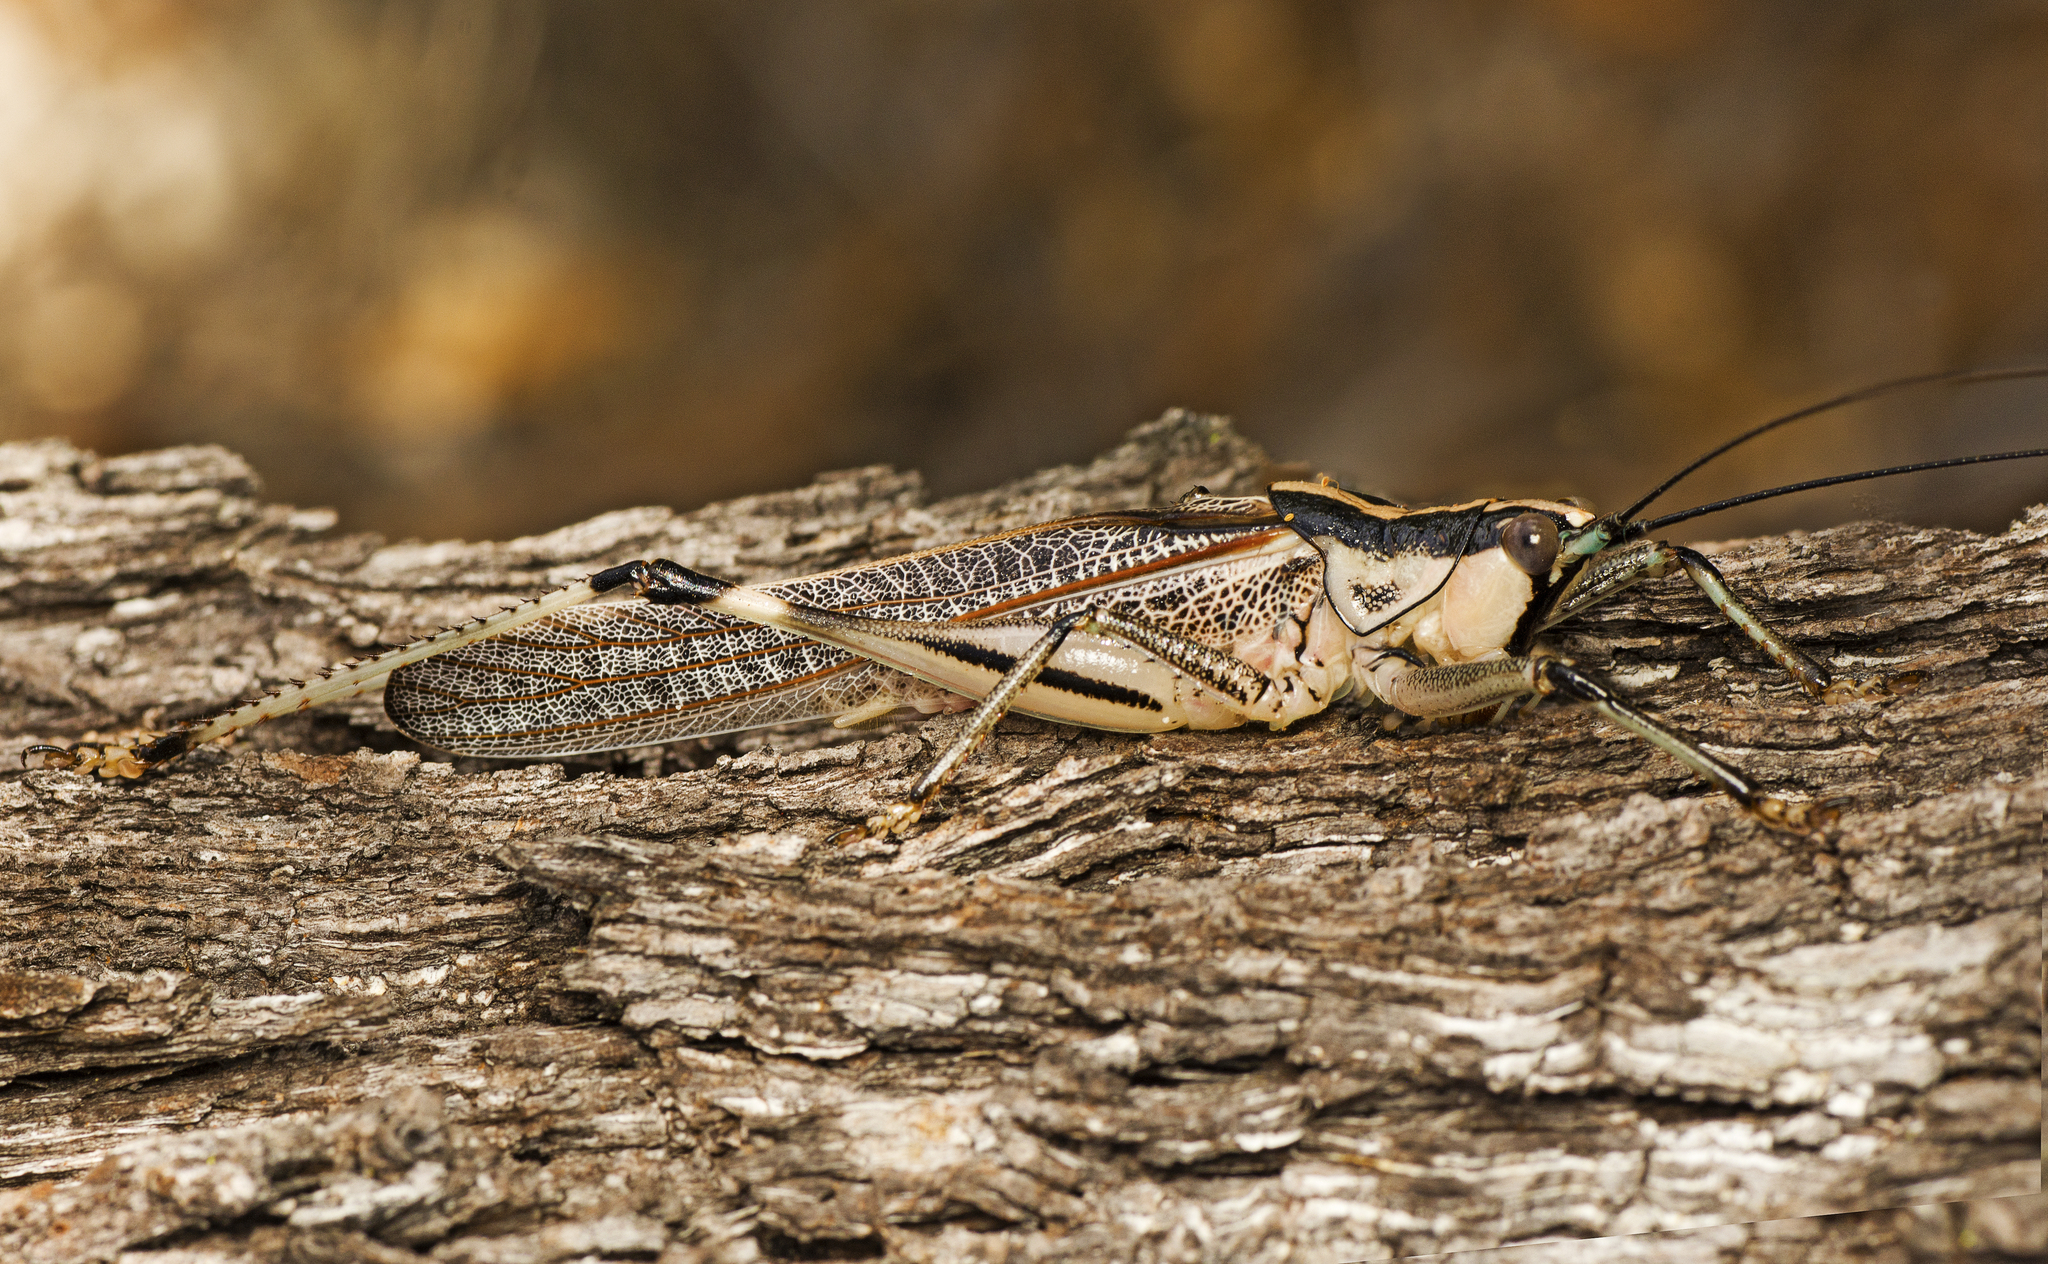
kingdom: Animalia
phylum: Arthropoda
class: Insecta
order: Orthoptera
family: Tettigoniidae
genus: Nicsara
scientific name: Nicsara bifasciata
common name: Striped nicsara
